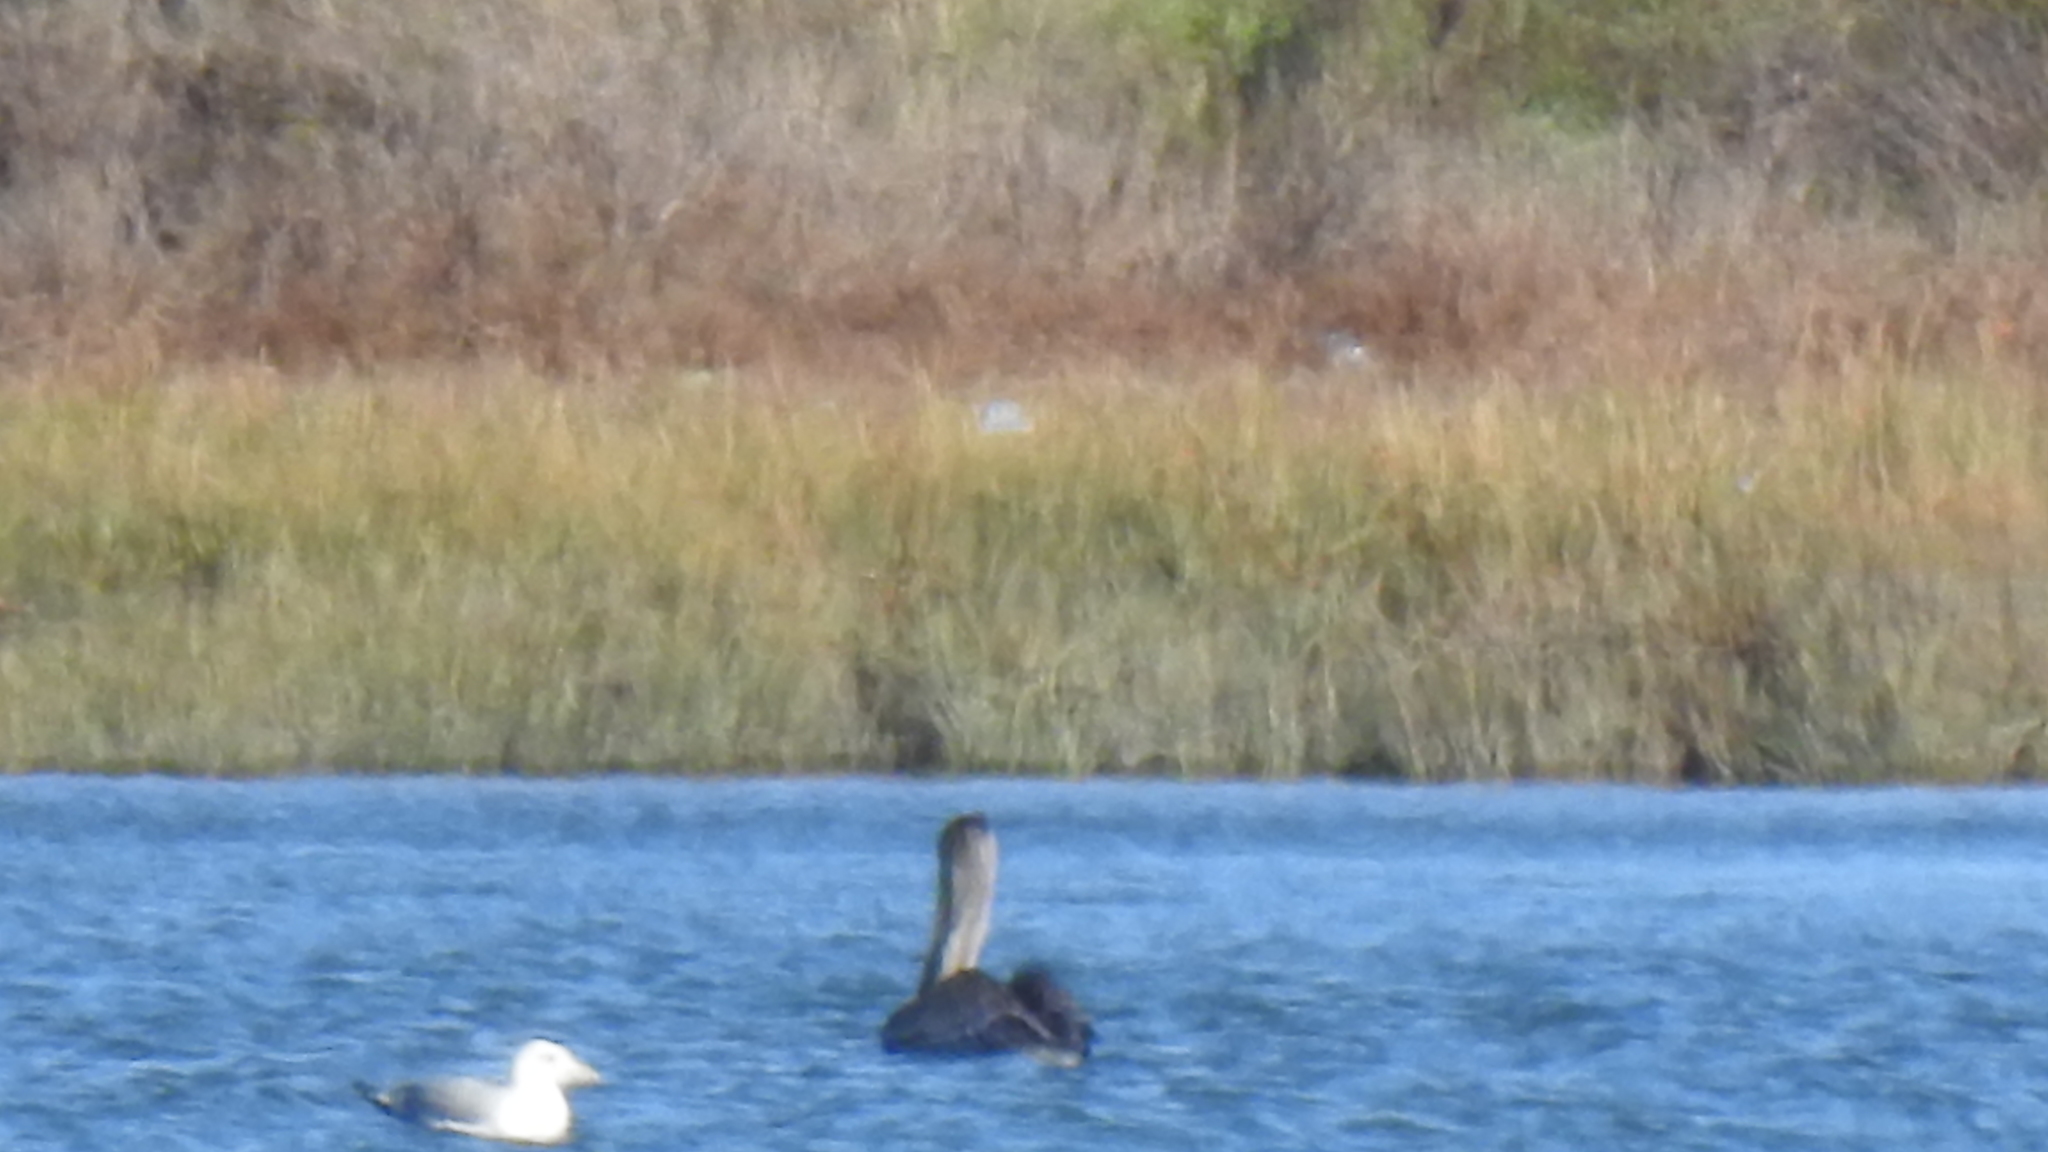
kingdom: Animalia
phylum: Chordata
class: Aves
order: Pelecaniformes
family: Pelecanidae
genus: Pelecanus
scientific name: Pelecanus occidentalis
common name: Brown pelican
